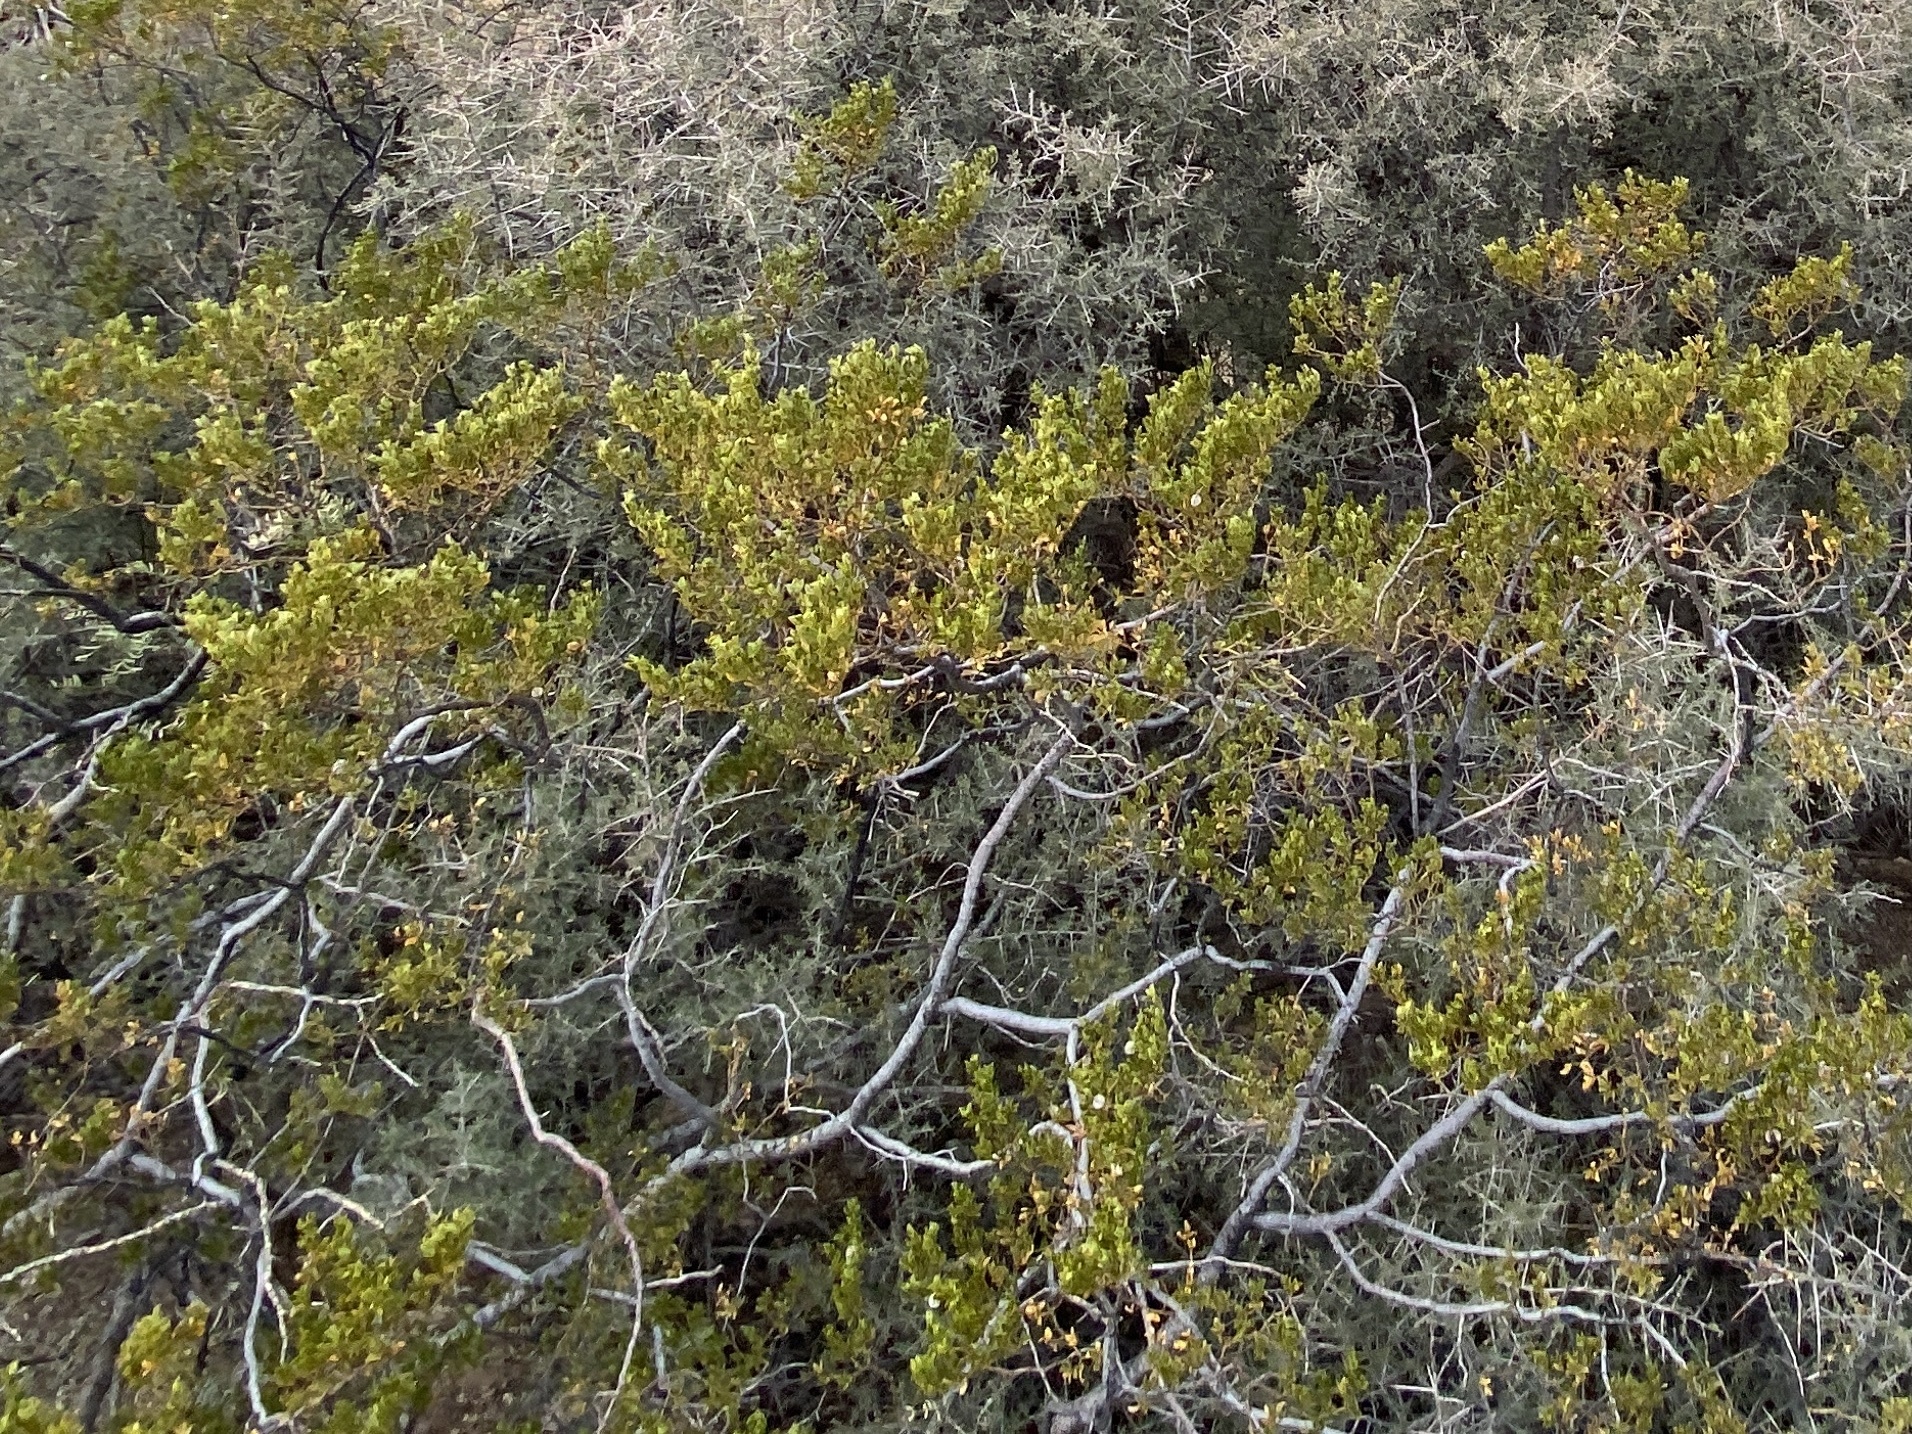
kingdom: Plantae
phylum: Tracheophyta
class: Magnoliopsida
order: Zygophyllales
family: Zygophyllaceae
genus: Larrea
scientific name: Larrea tridentata
